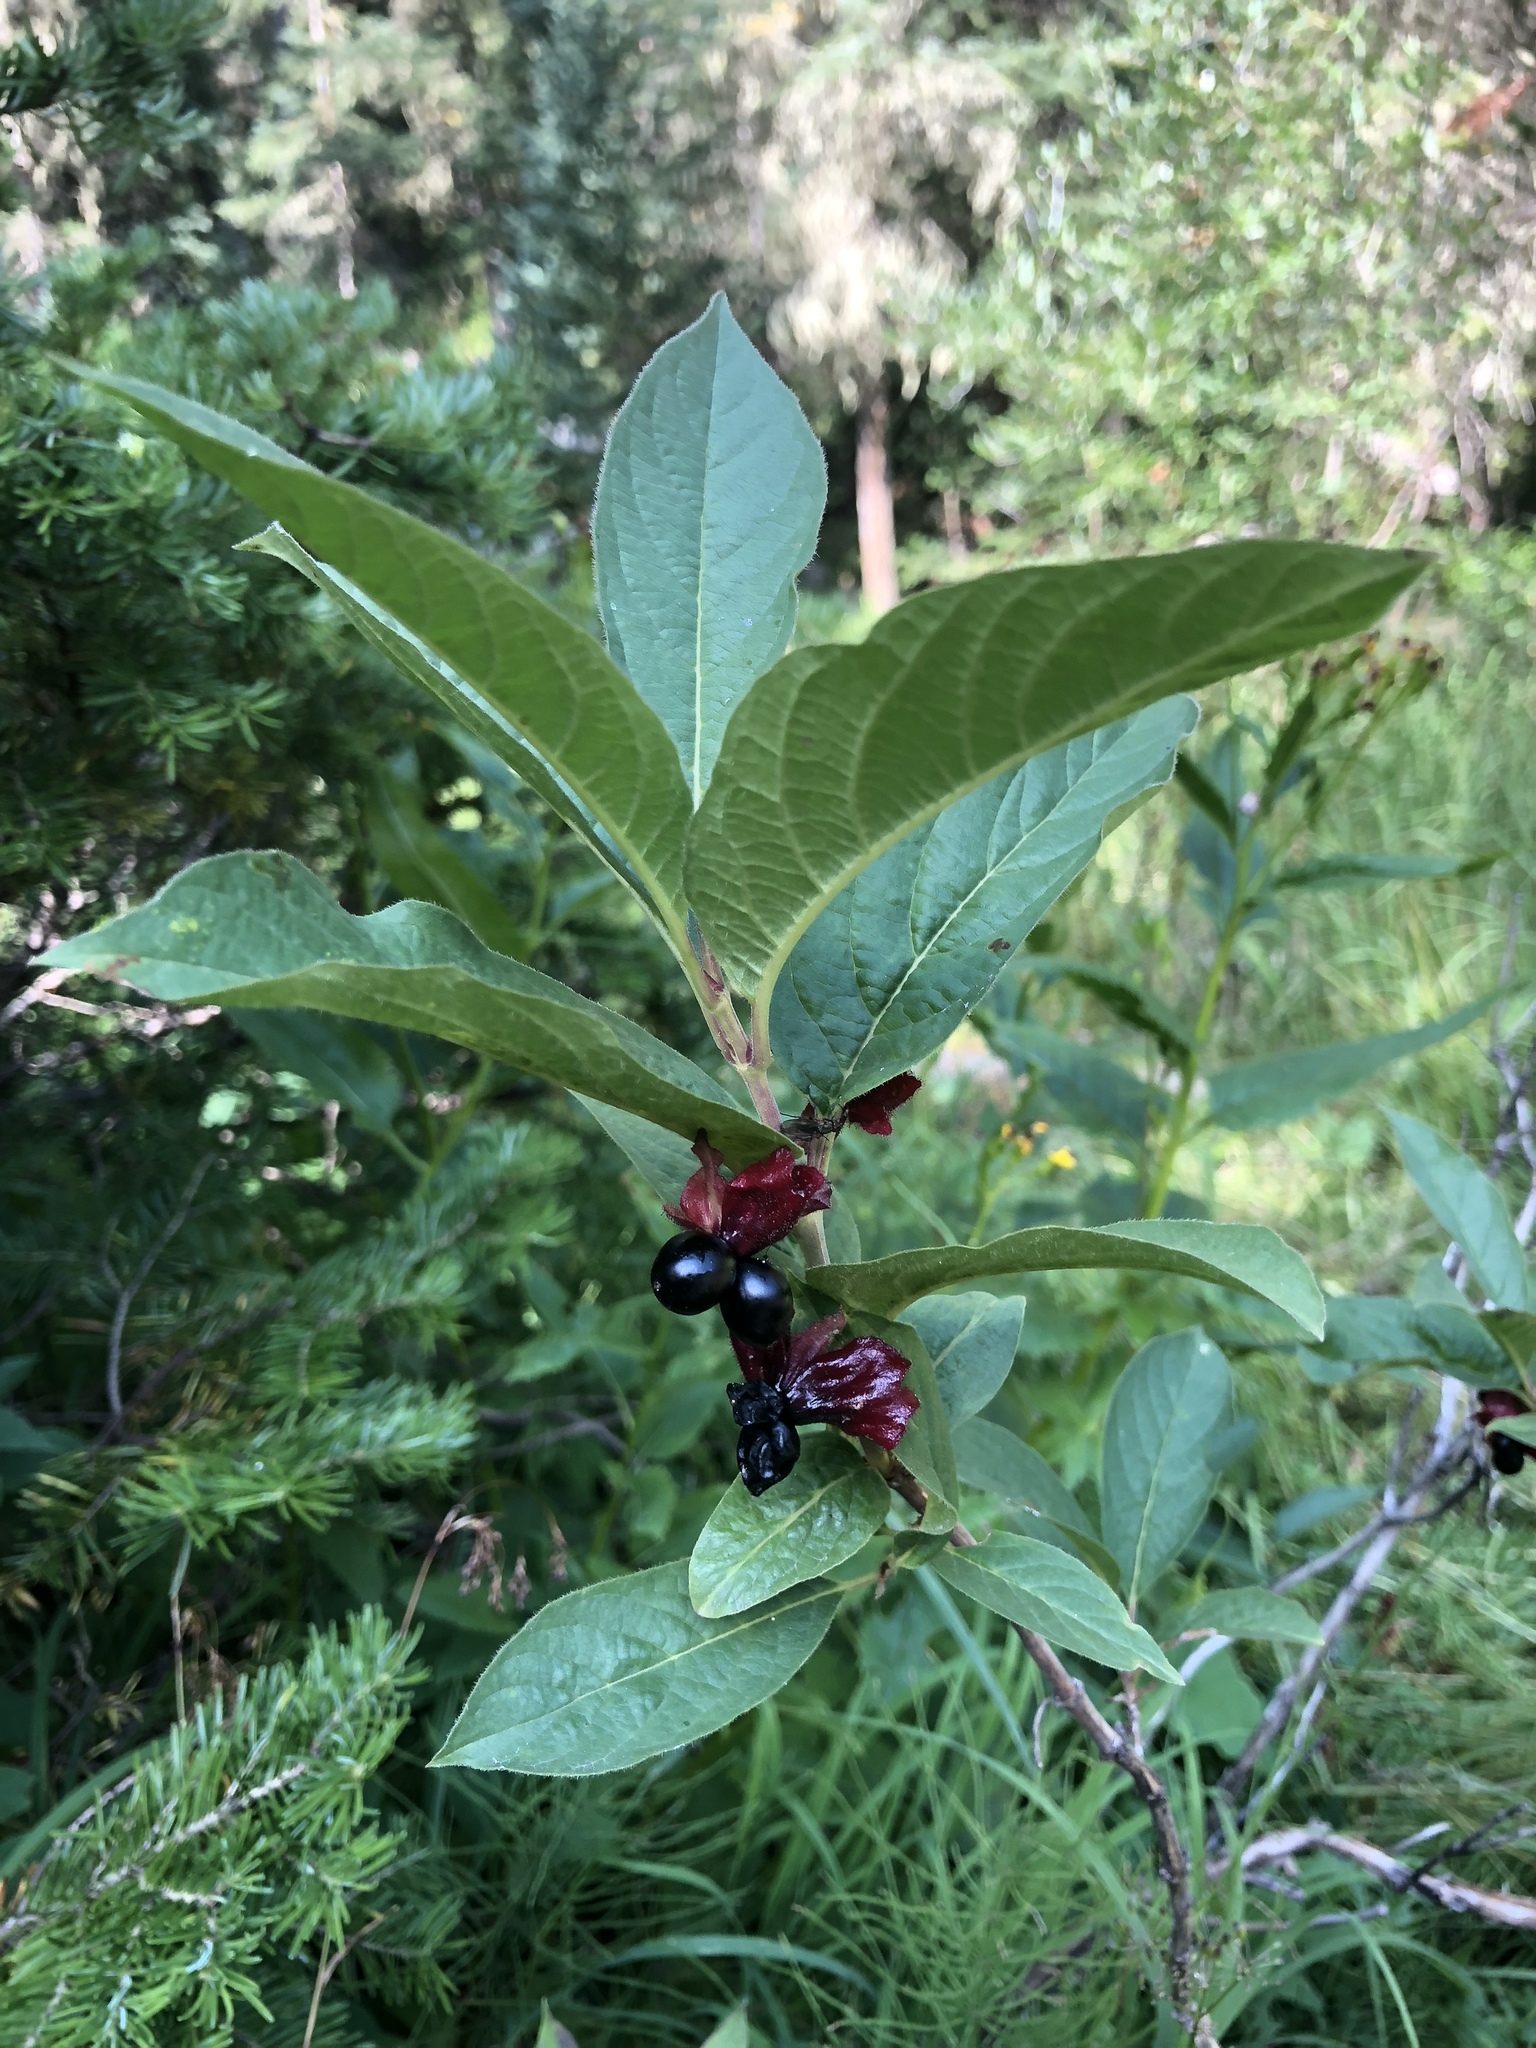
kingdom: Plantae
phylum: Tracheophyta
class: Magnoliopsida
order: Dipsacales
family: Caprifoliaceae
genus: Lonicera
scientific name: Lonicera involucrata
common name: Californian honeysuckle
